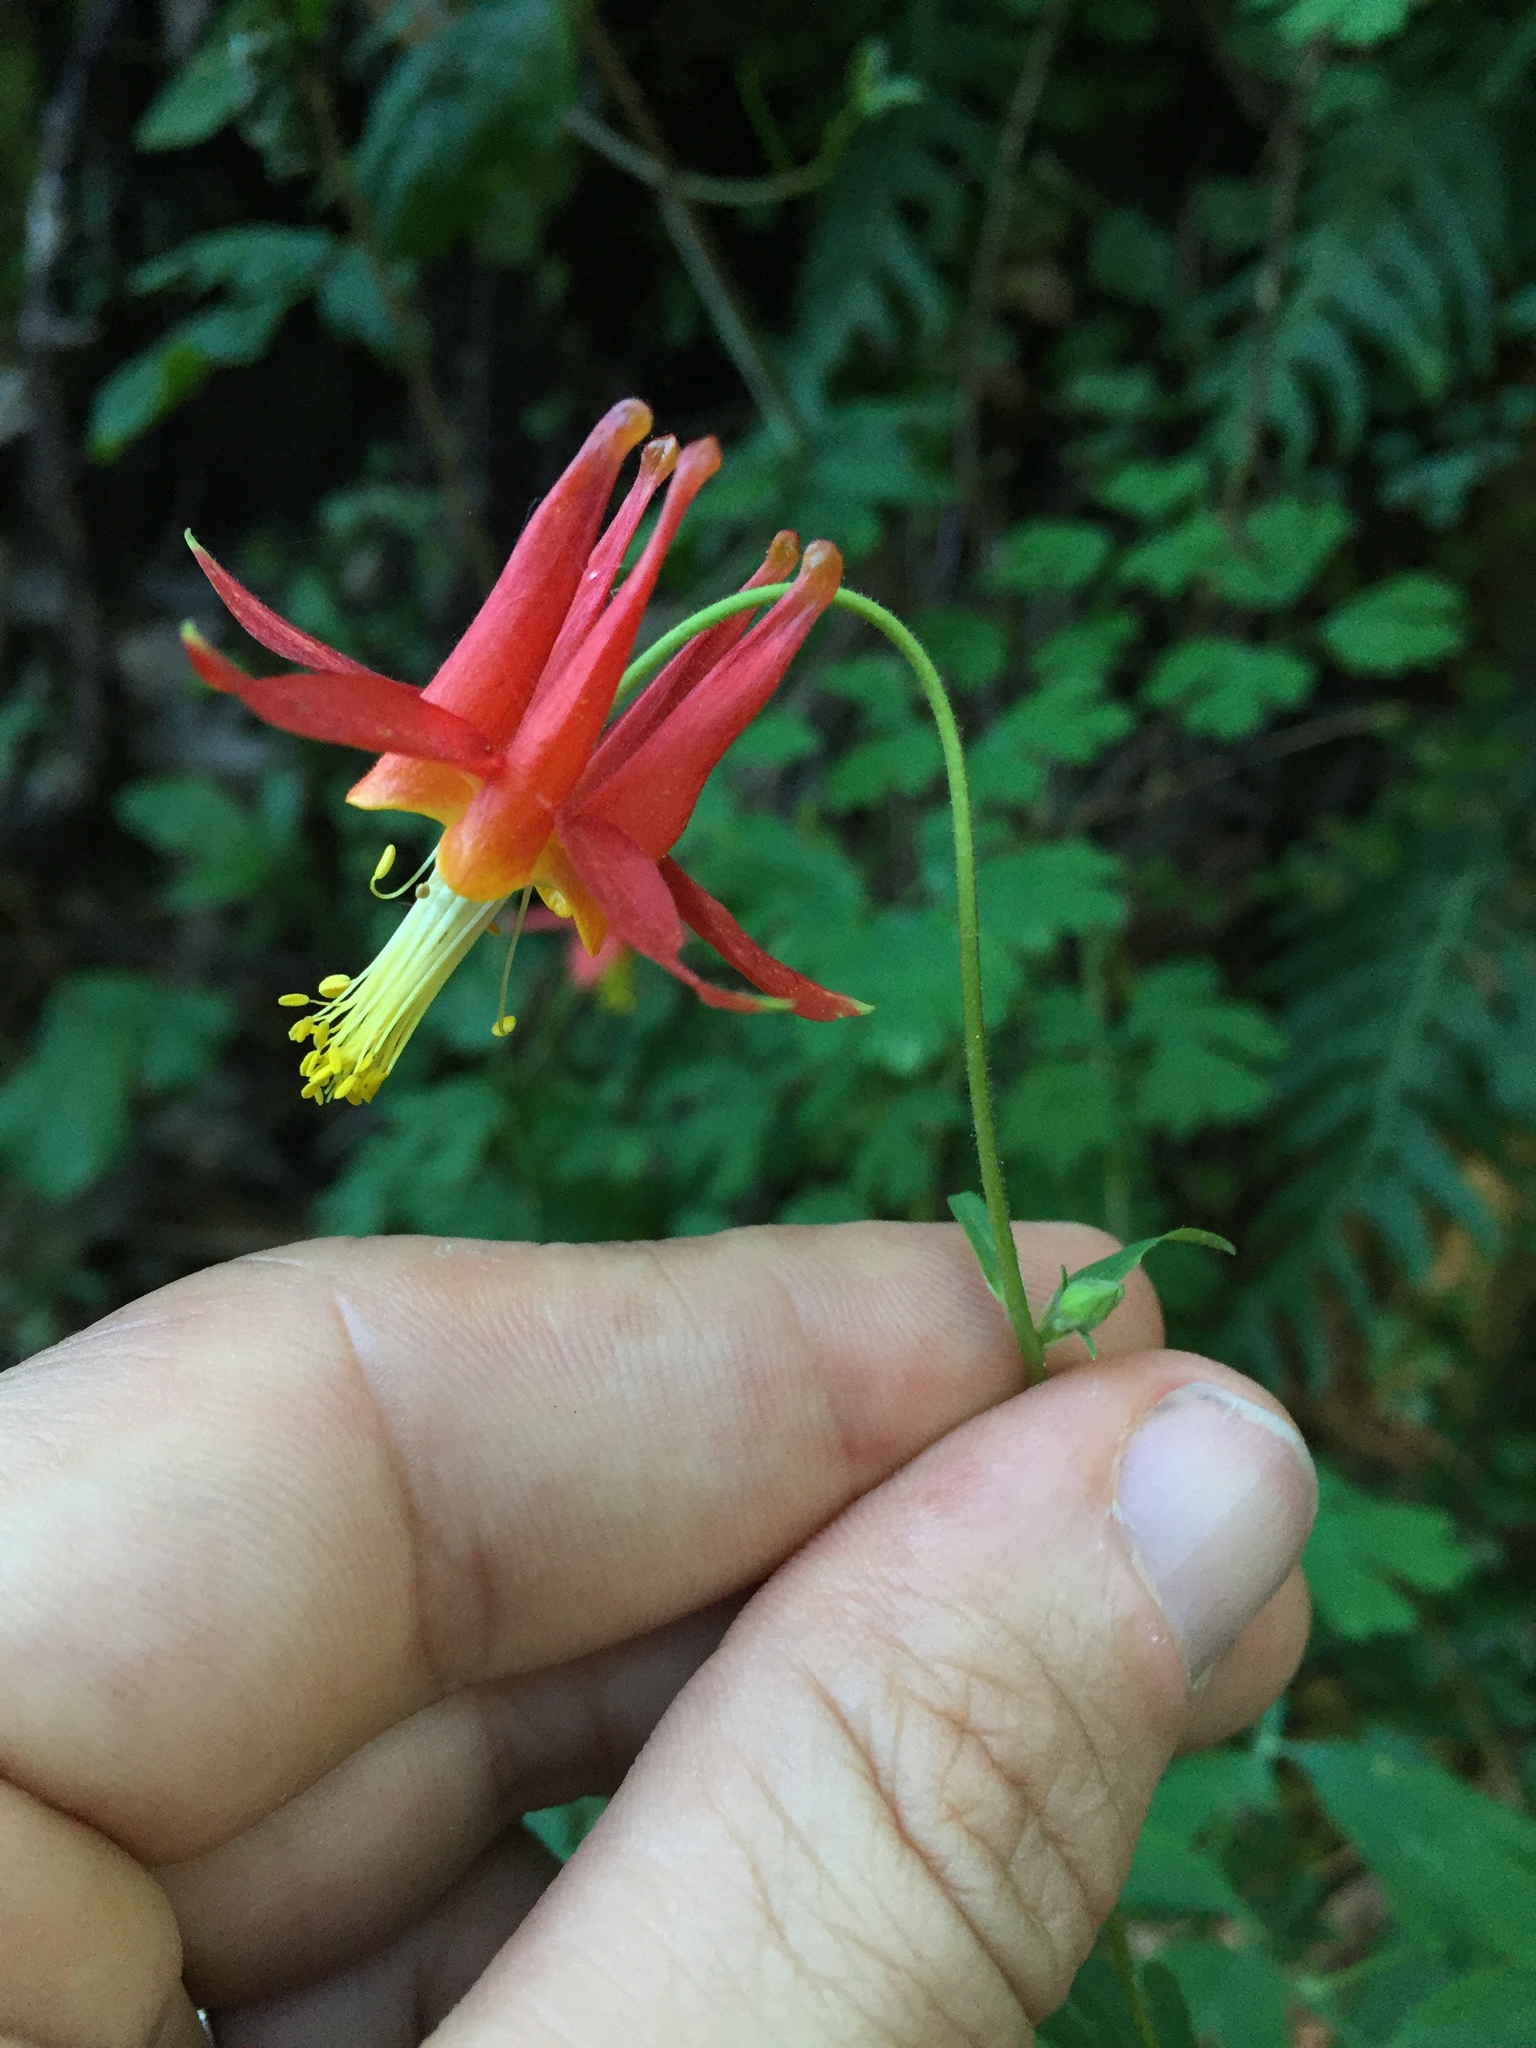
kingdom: Plantae
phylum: Tracheophyta
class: Magnoliopsida
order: Ranunculales
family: Ranunculaceae
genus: Aquilegia
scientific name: Aquilegia formosa
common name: Sitka columbine
